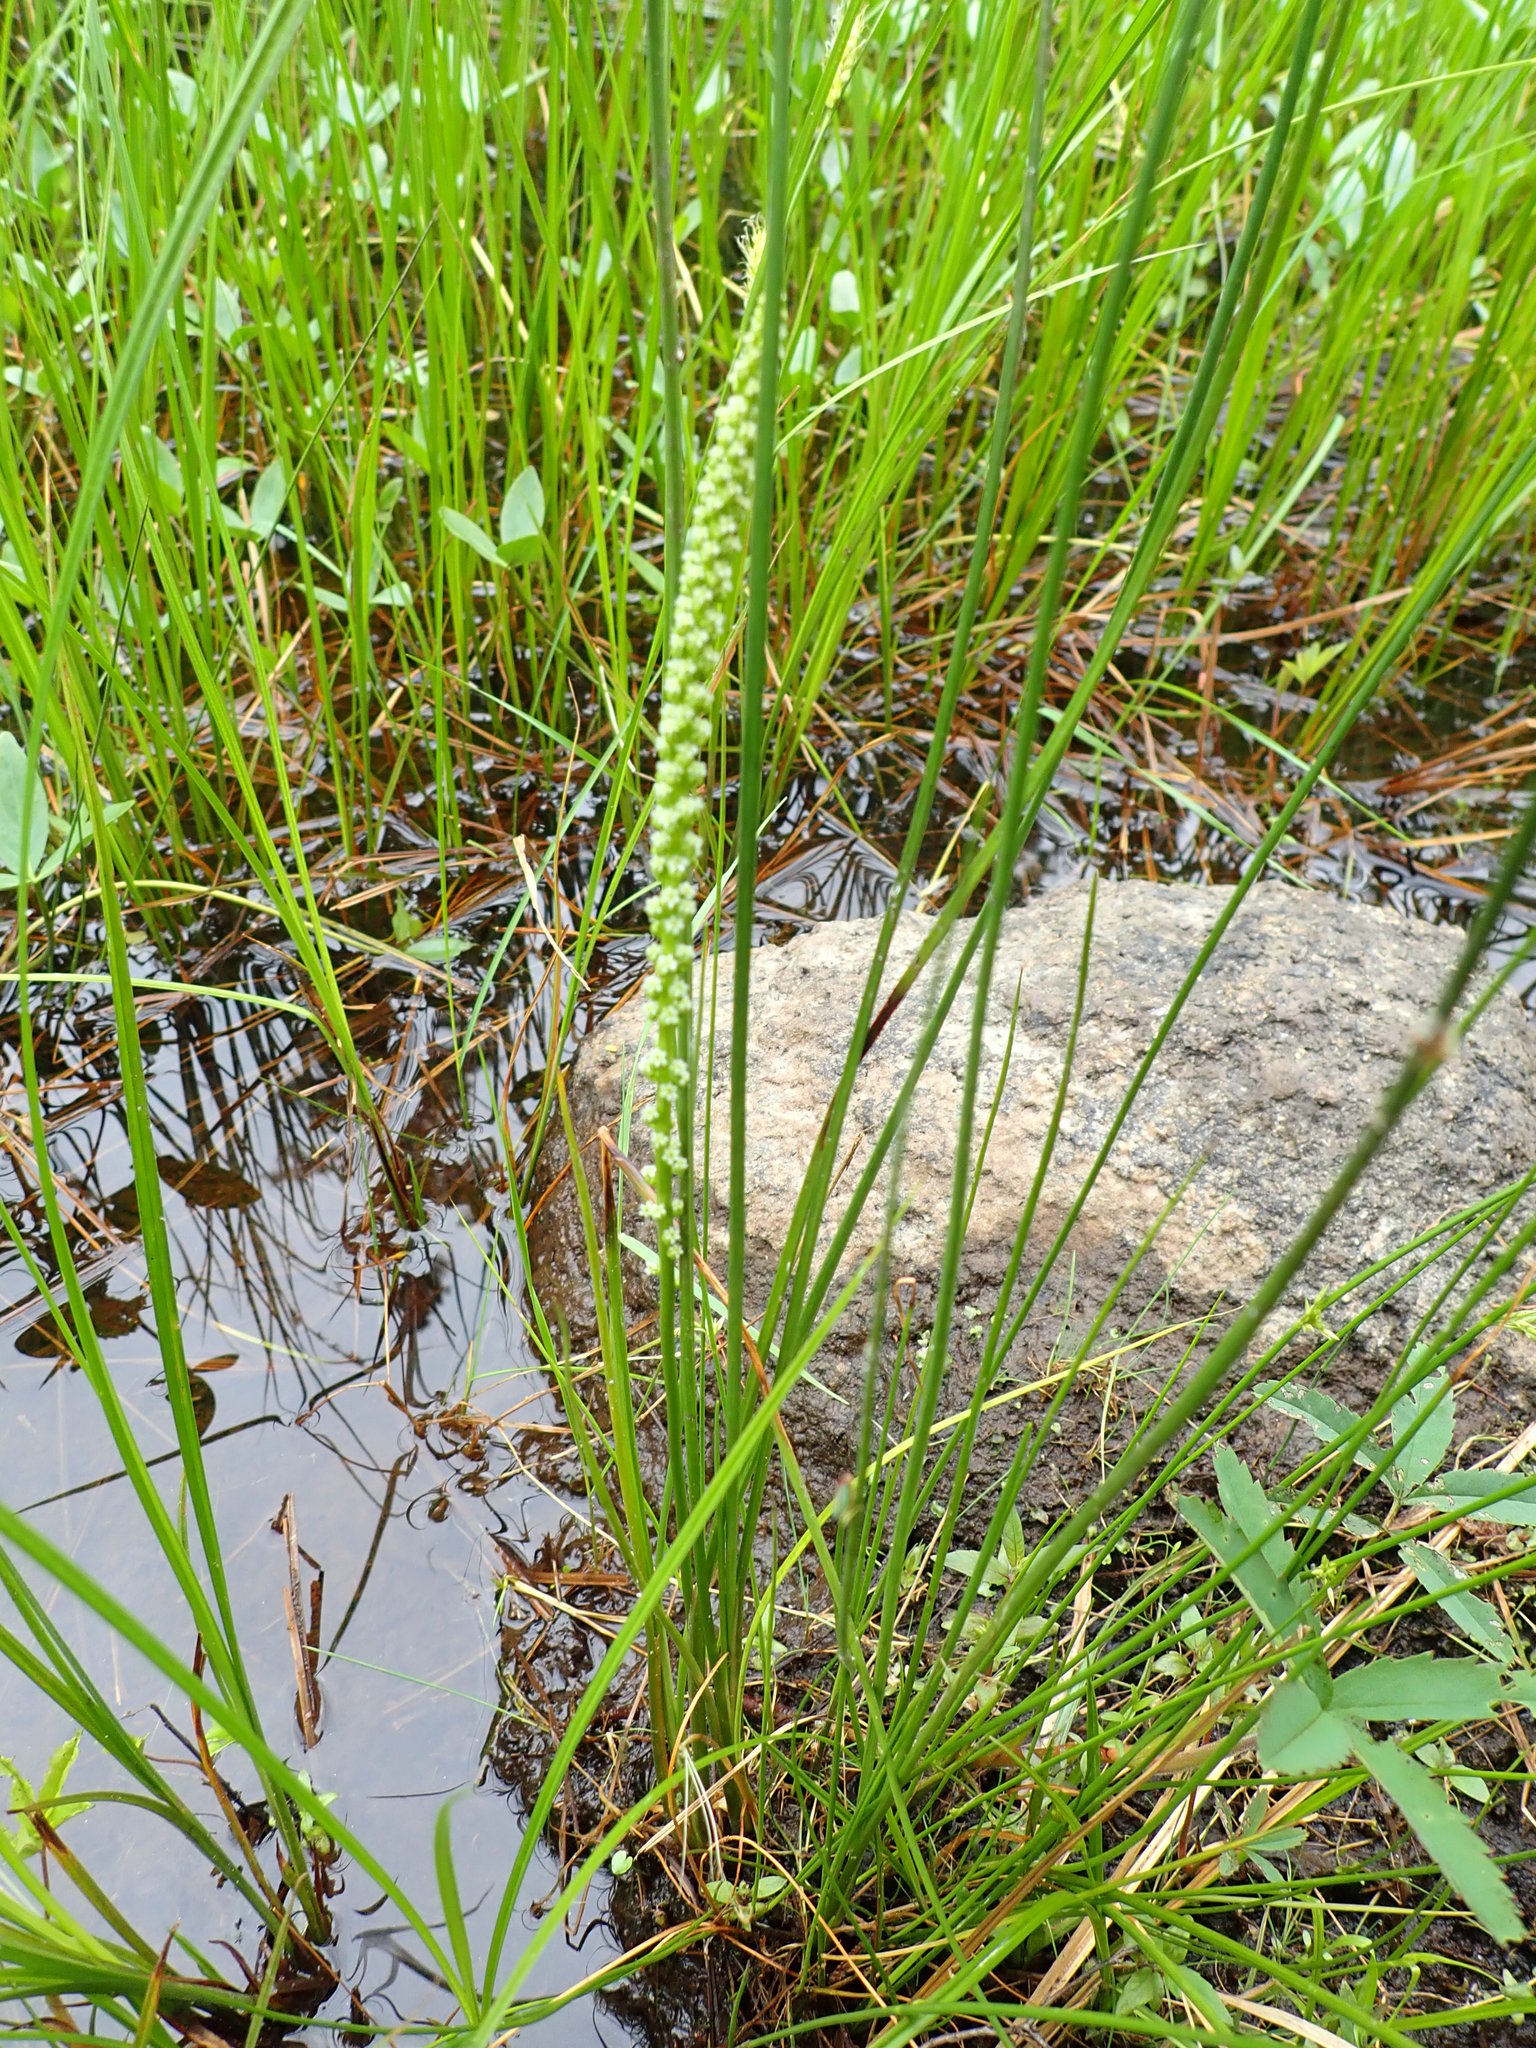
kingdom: Plantae
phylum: Tracheophyta
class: Liliopsida
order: Alismatales
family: Juncaginaceae
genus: Triglochin
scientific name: Triglochin maritima
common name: Sea arrowgrass
